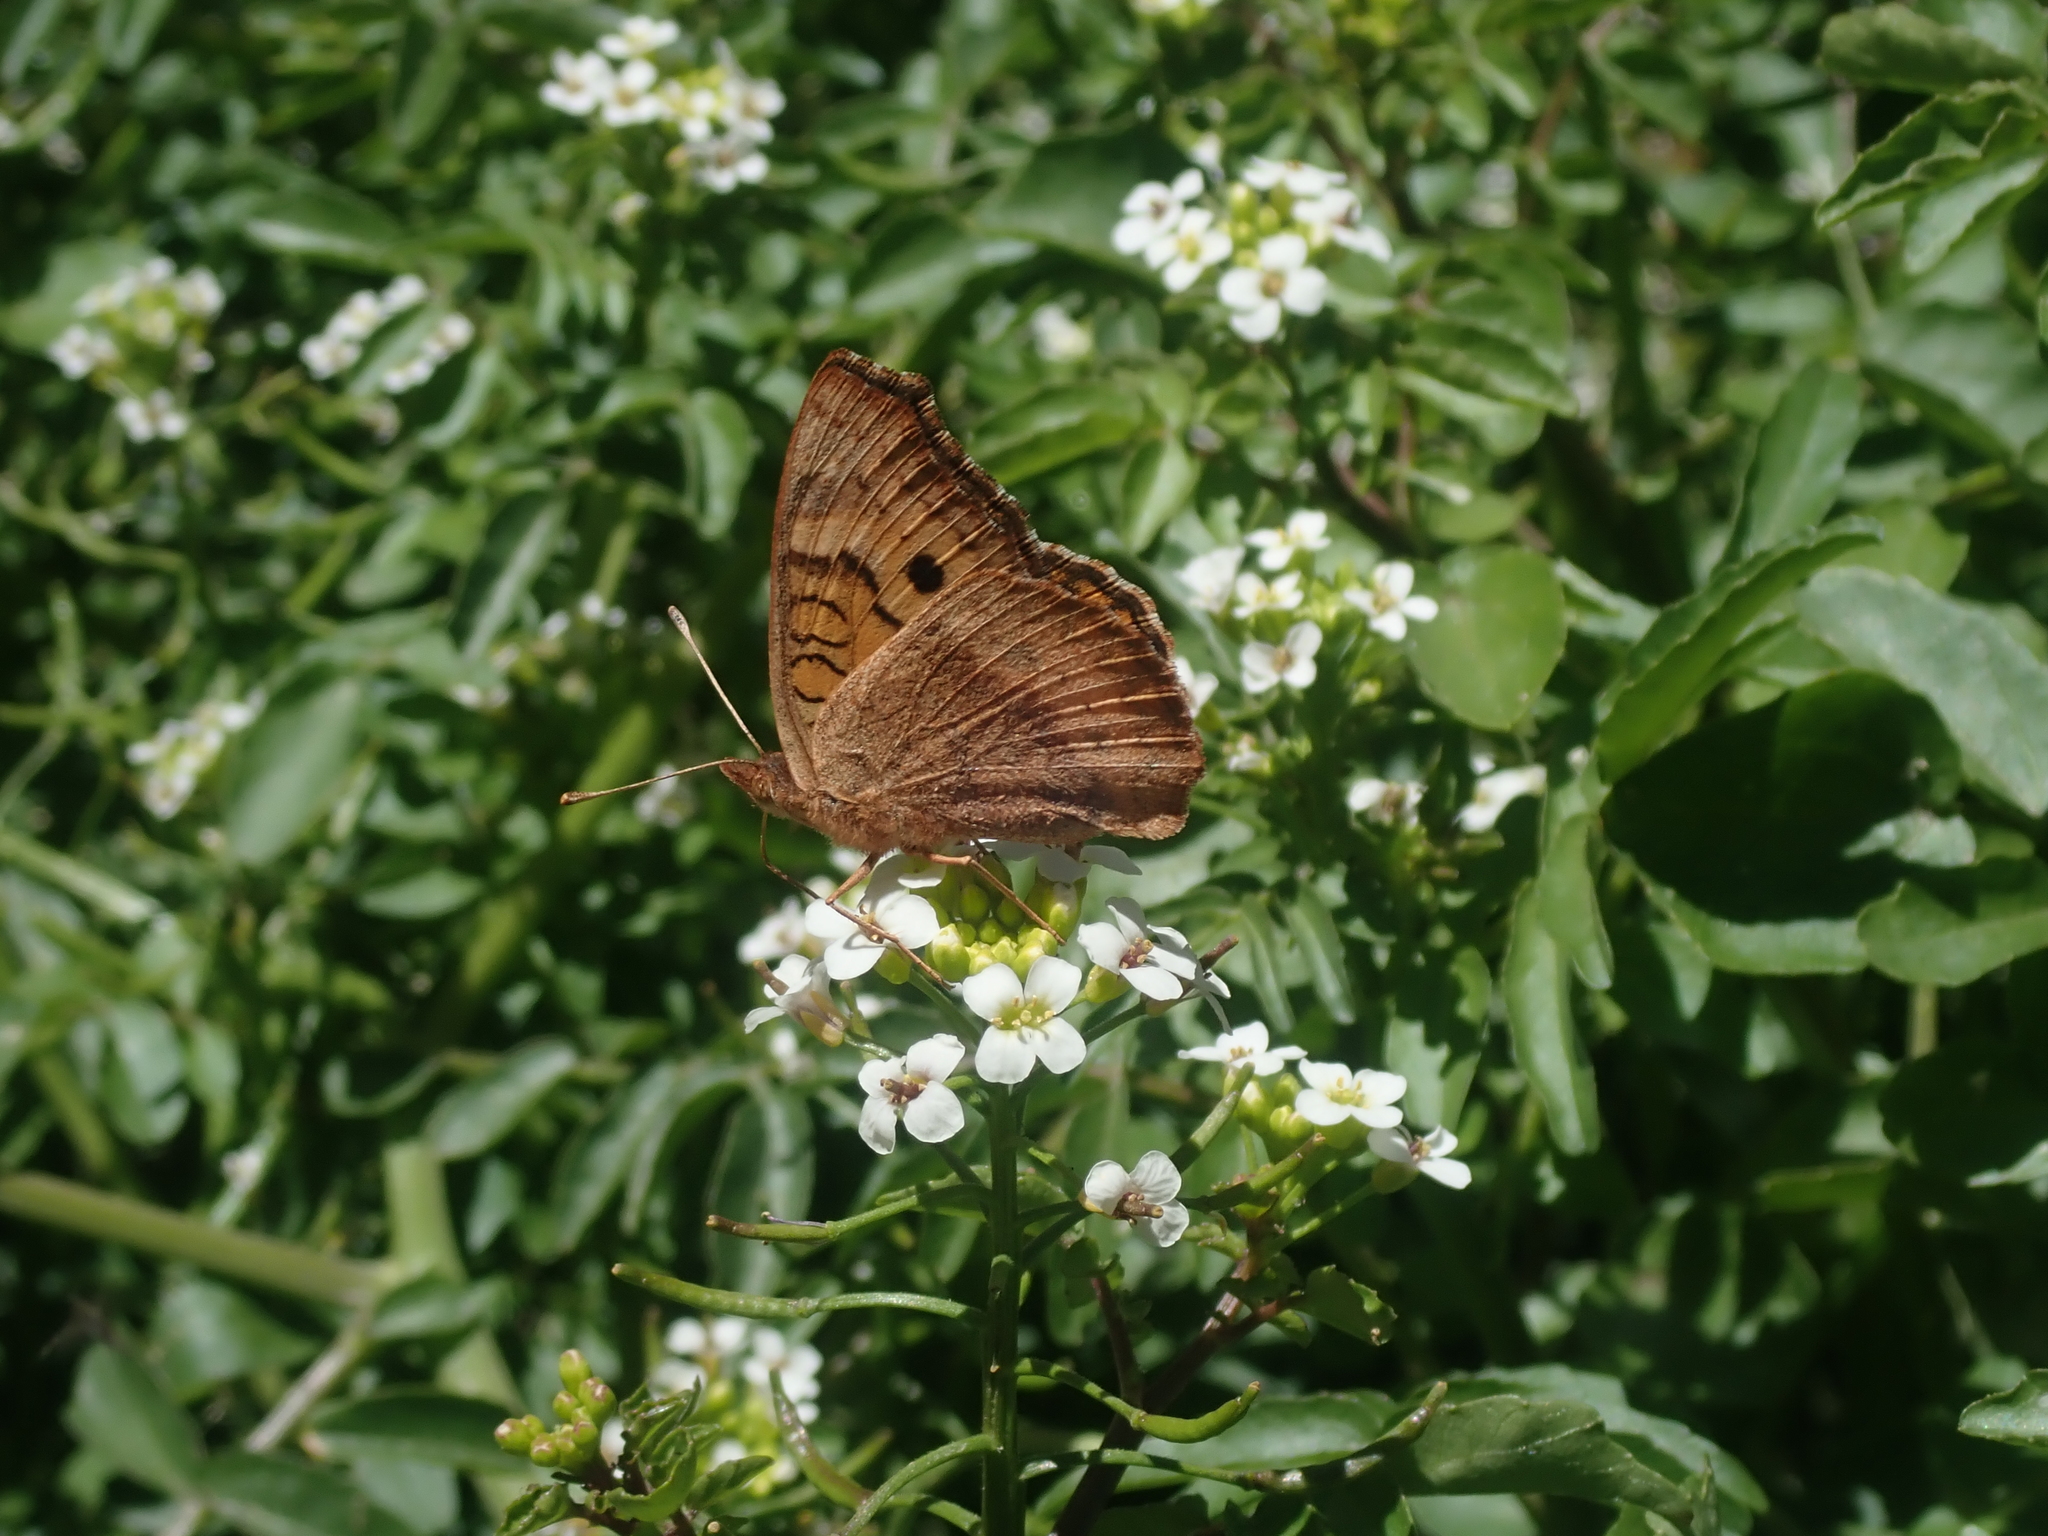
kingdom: Animalia
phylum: Arthropoda
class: Insecta
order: Lepidoptera
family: Nymphalidae
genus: Junonia
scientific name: Junonia vestina
